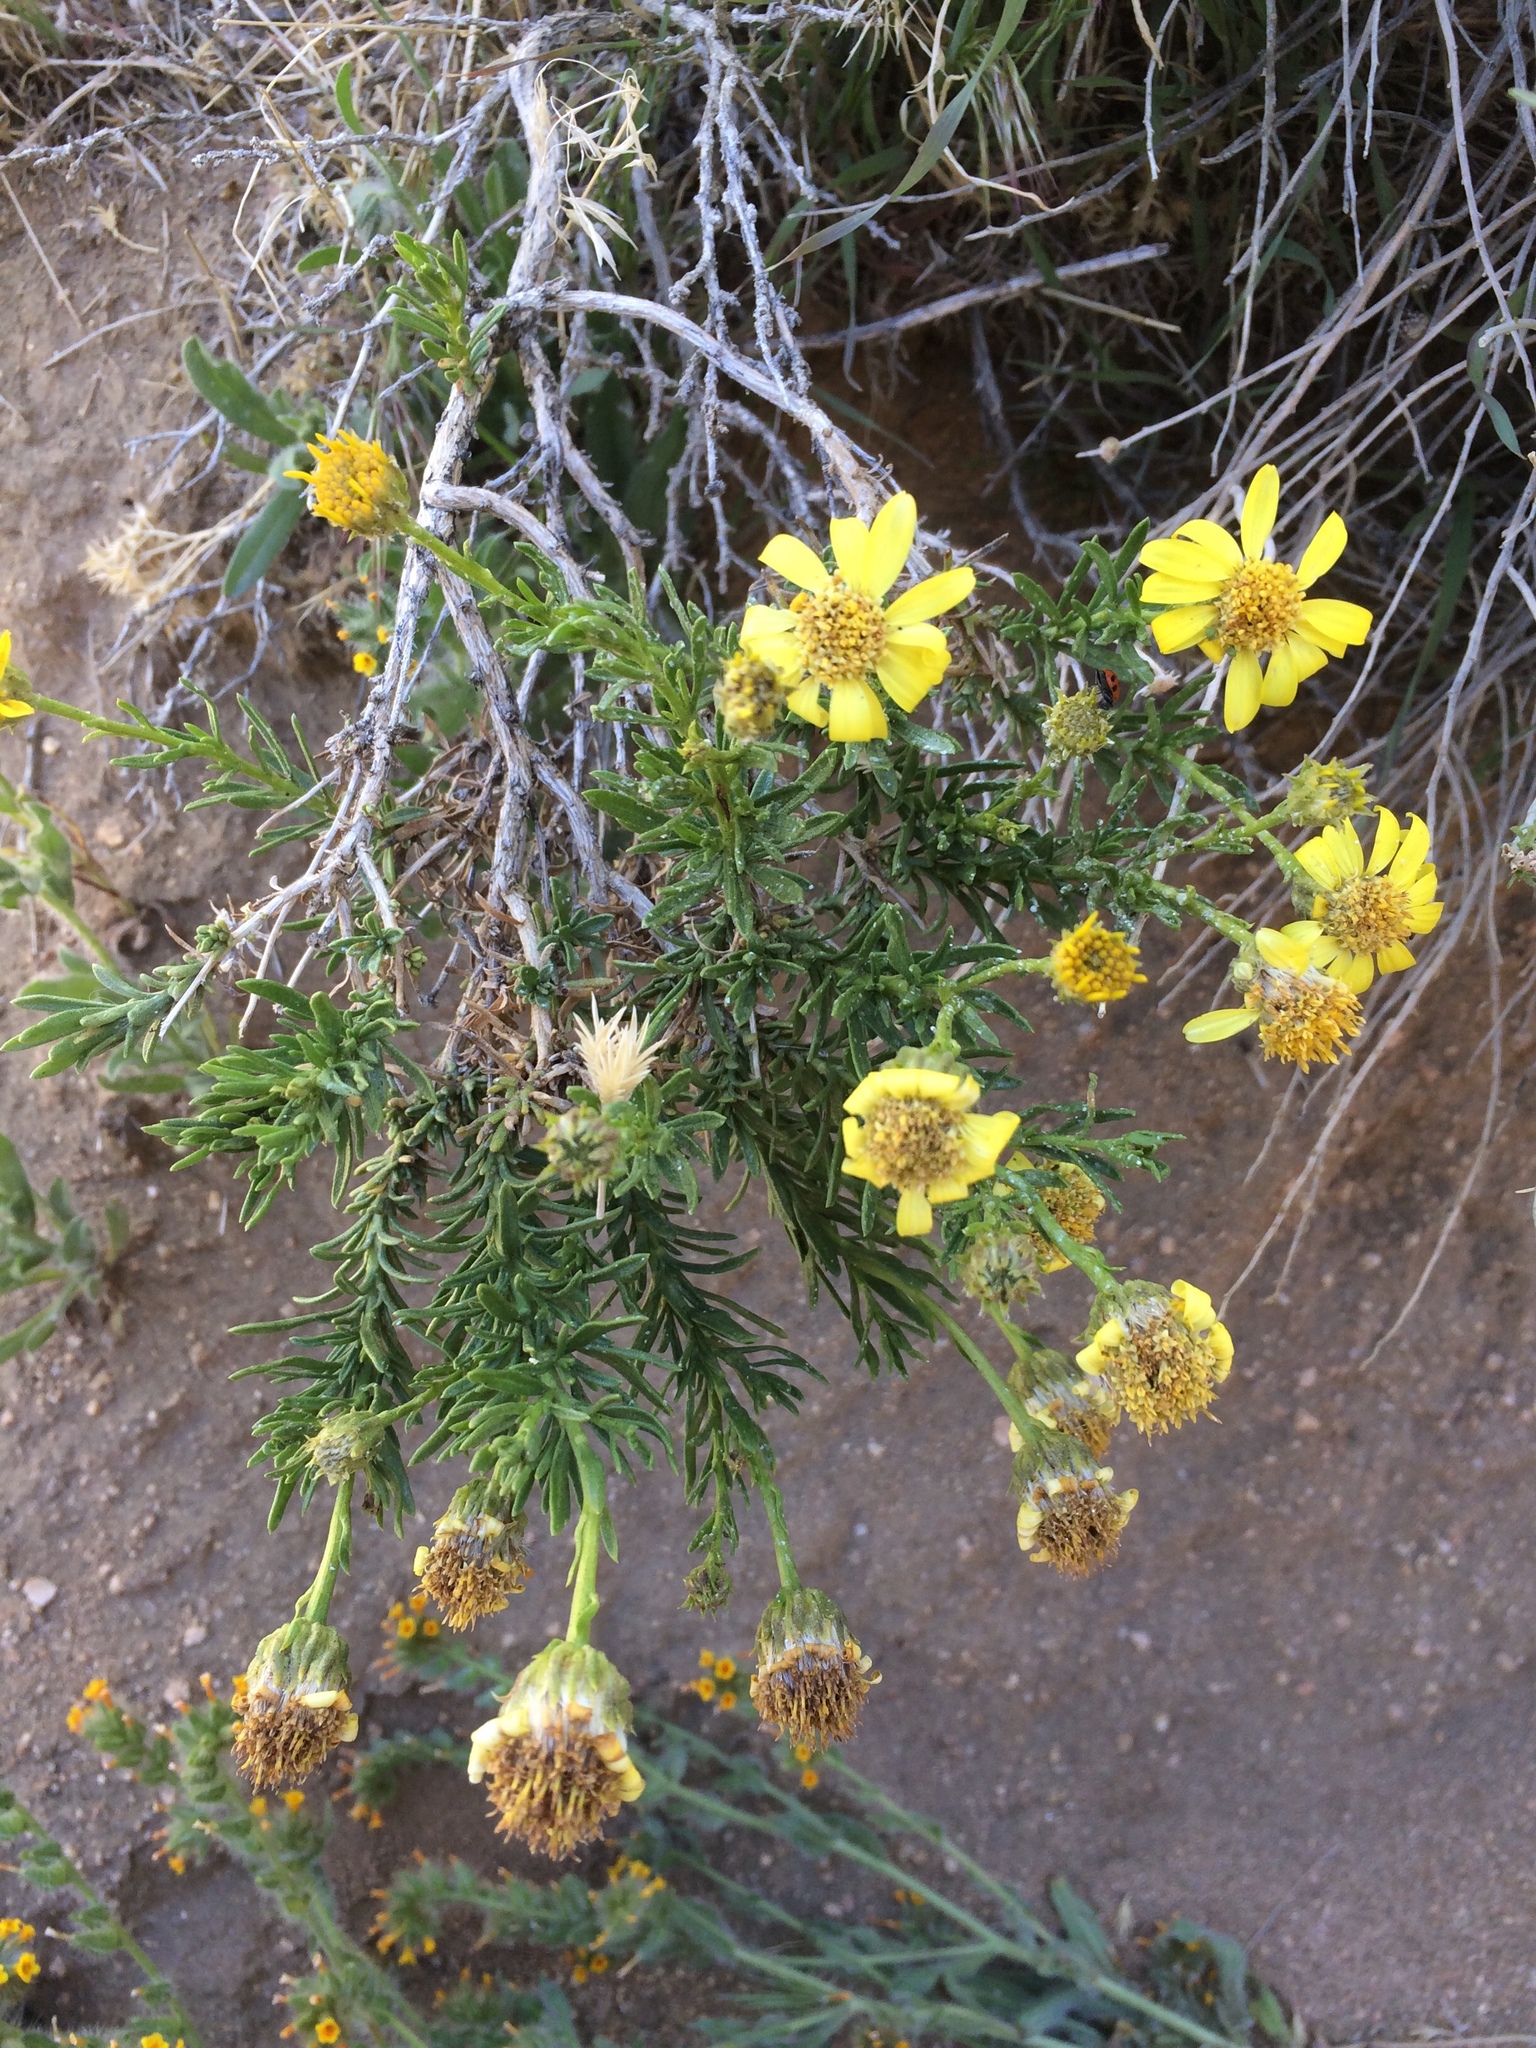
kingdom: Plantae
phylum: Tracheophyta
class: Magnoliopsida
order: Asterales
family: Asteraceae
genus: Ericameria
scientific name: Ericameria linearifolia
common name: Interior goldenbush
